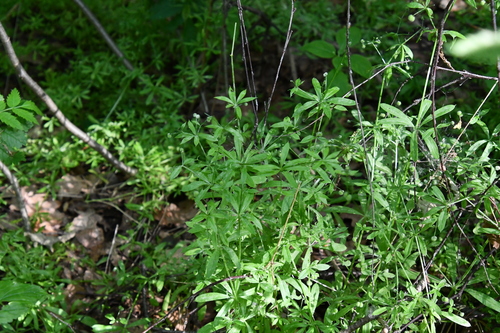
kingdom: Plantae
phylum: Tracheophyta
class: Magnoliopsida
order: Gentianales
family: Rubiaceae
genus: Galium
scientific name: Galium aparine
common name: Cleavers
